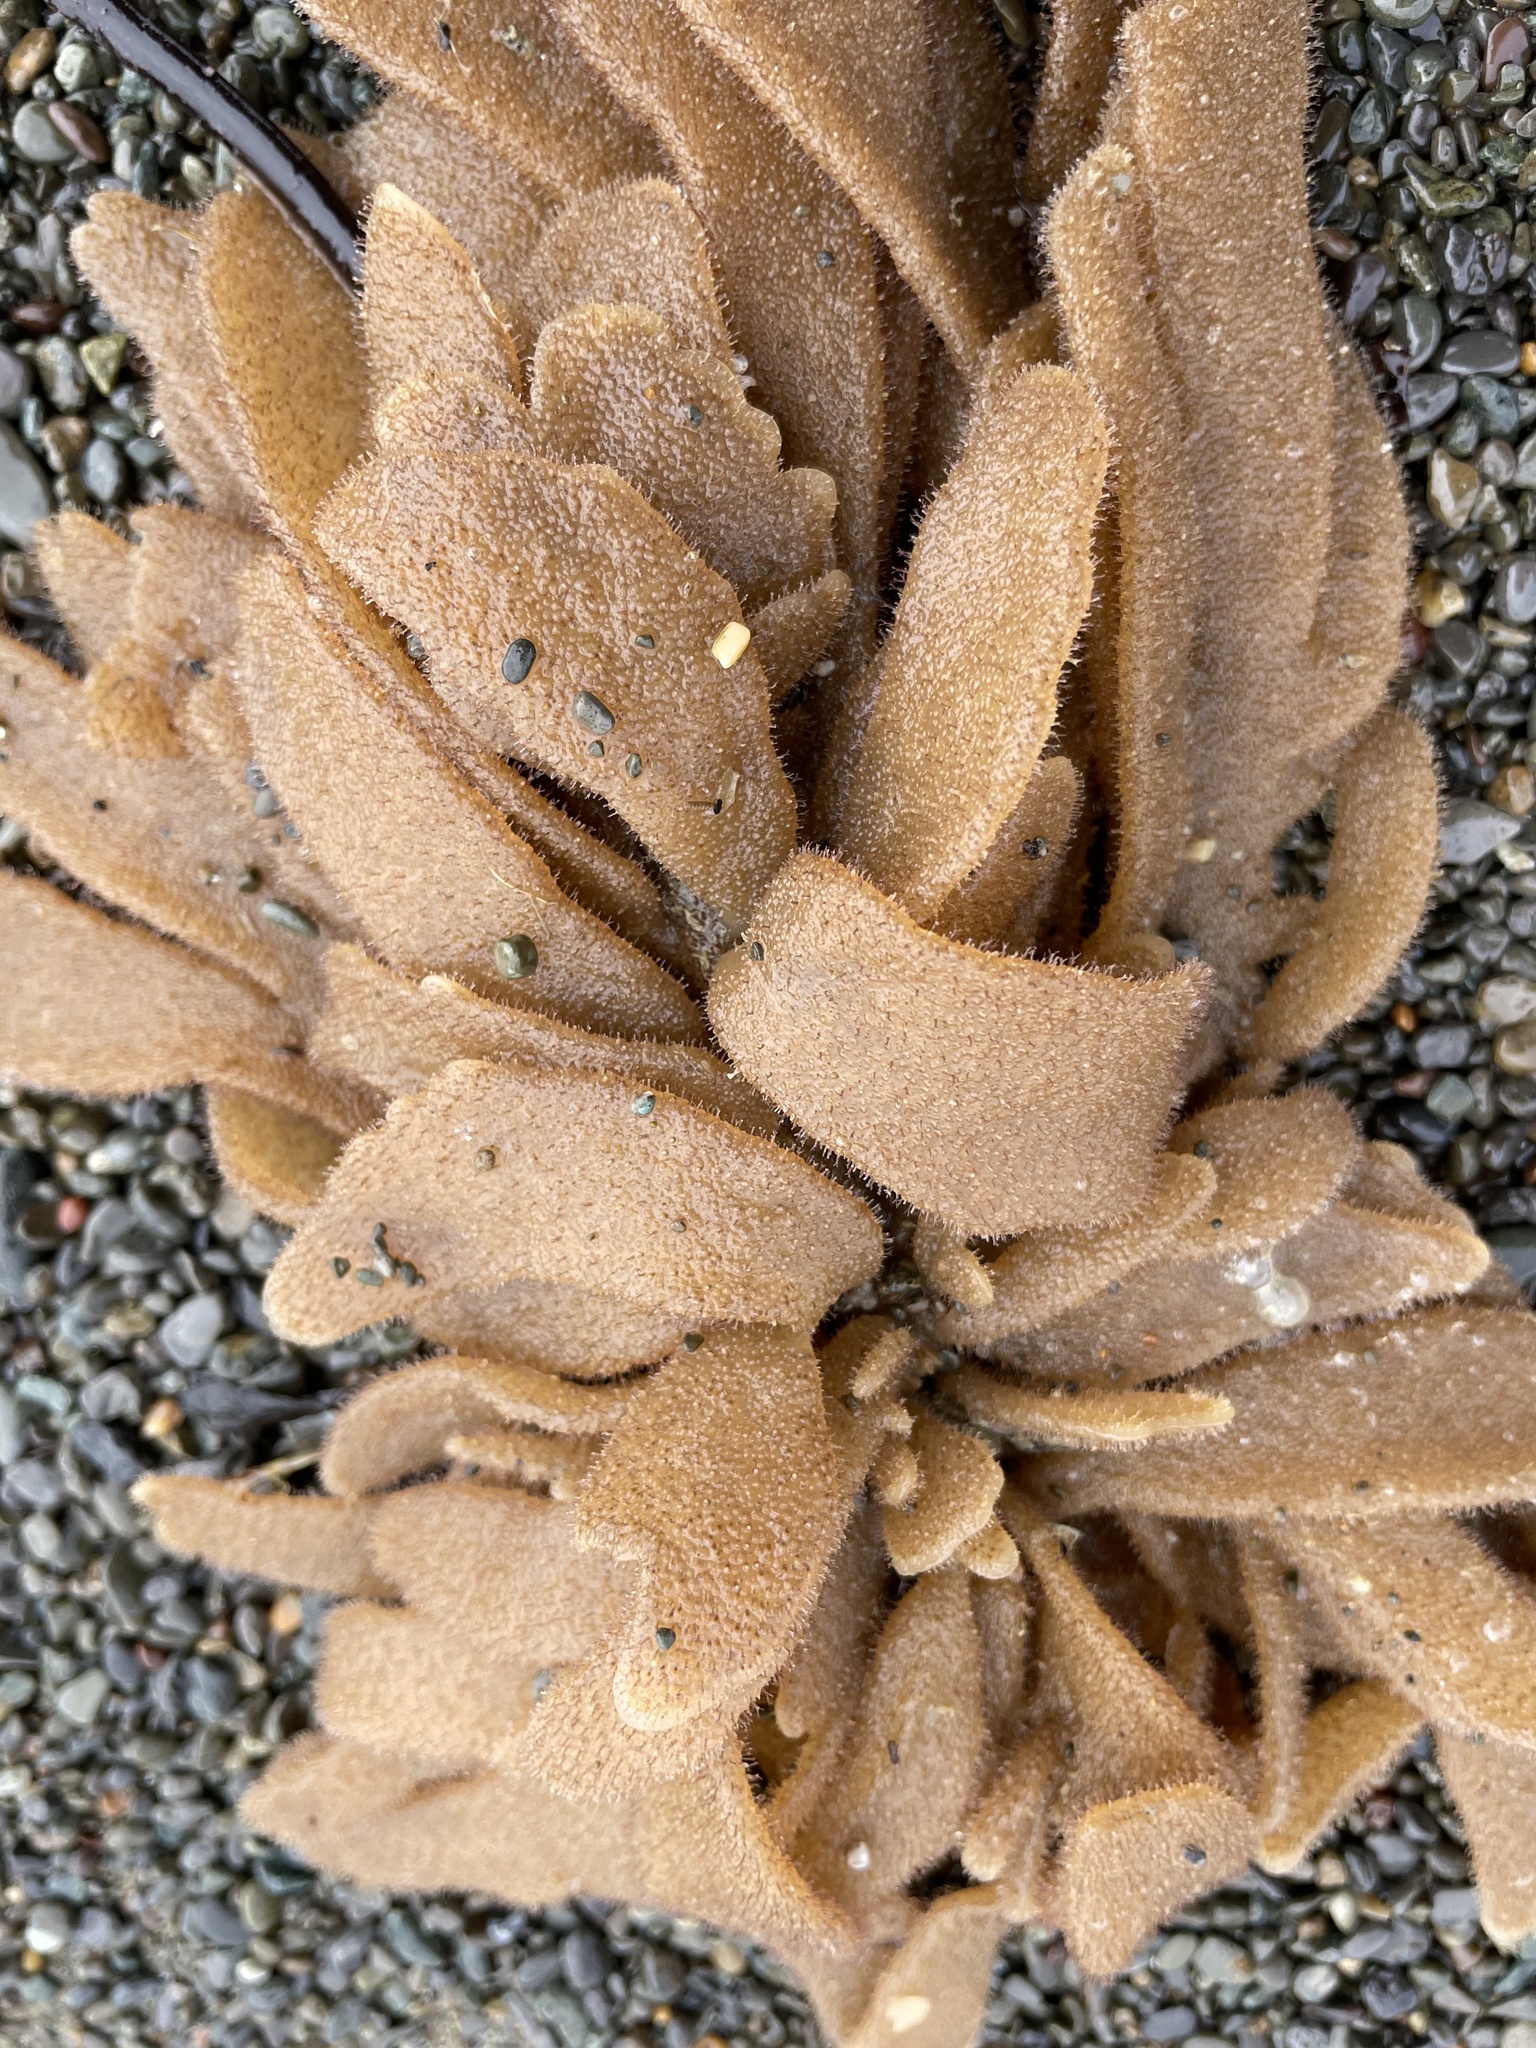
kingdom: Animalia
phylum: Bryozoa
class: Gymnolaemata
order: Ctenostomatida
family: Flustrellidridae
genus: Flustrellidra
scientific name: Flustrellidra corniculata
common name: Spiny leather bryozoan
